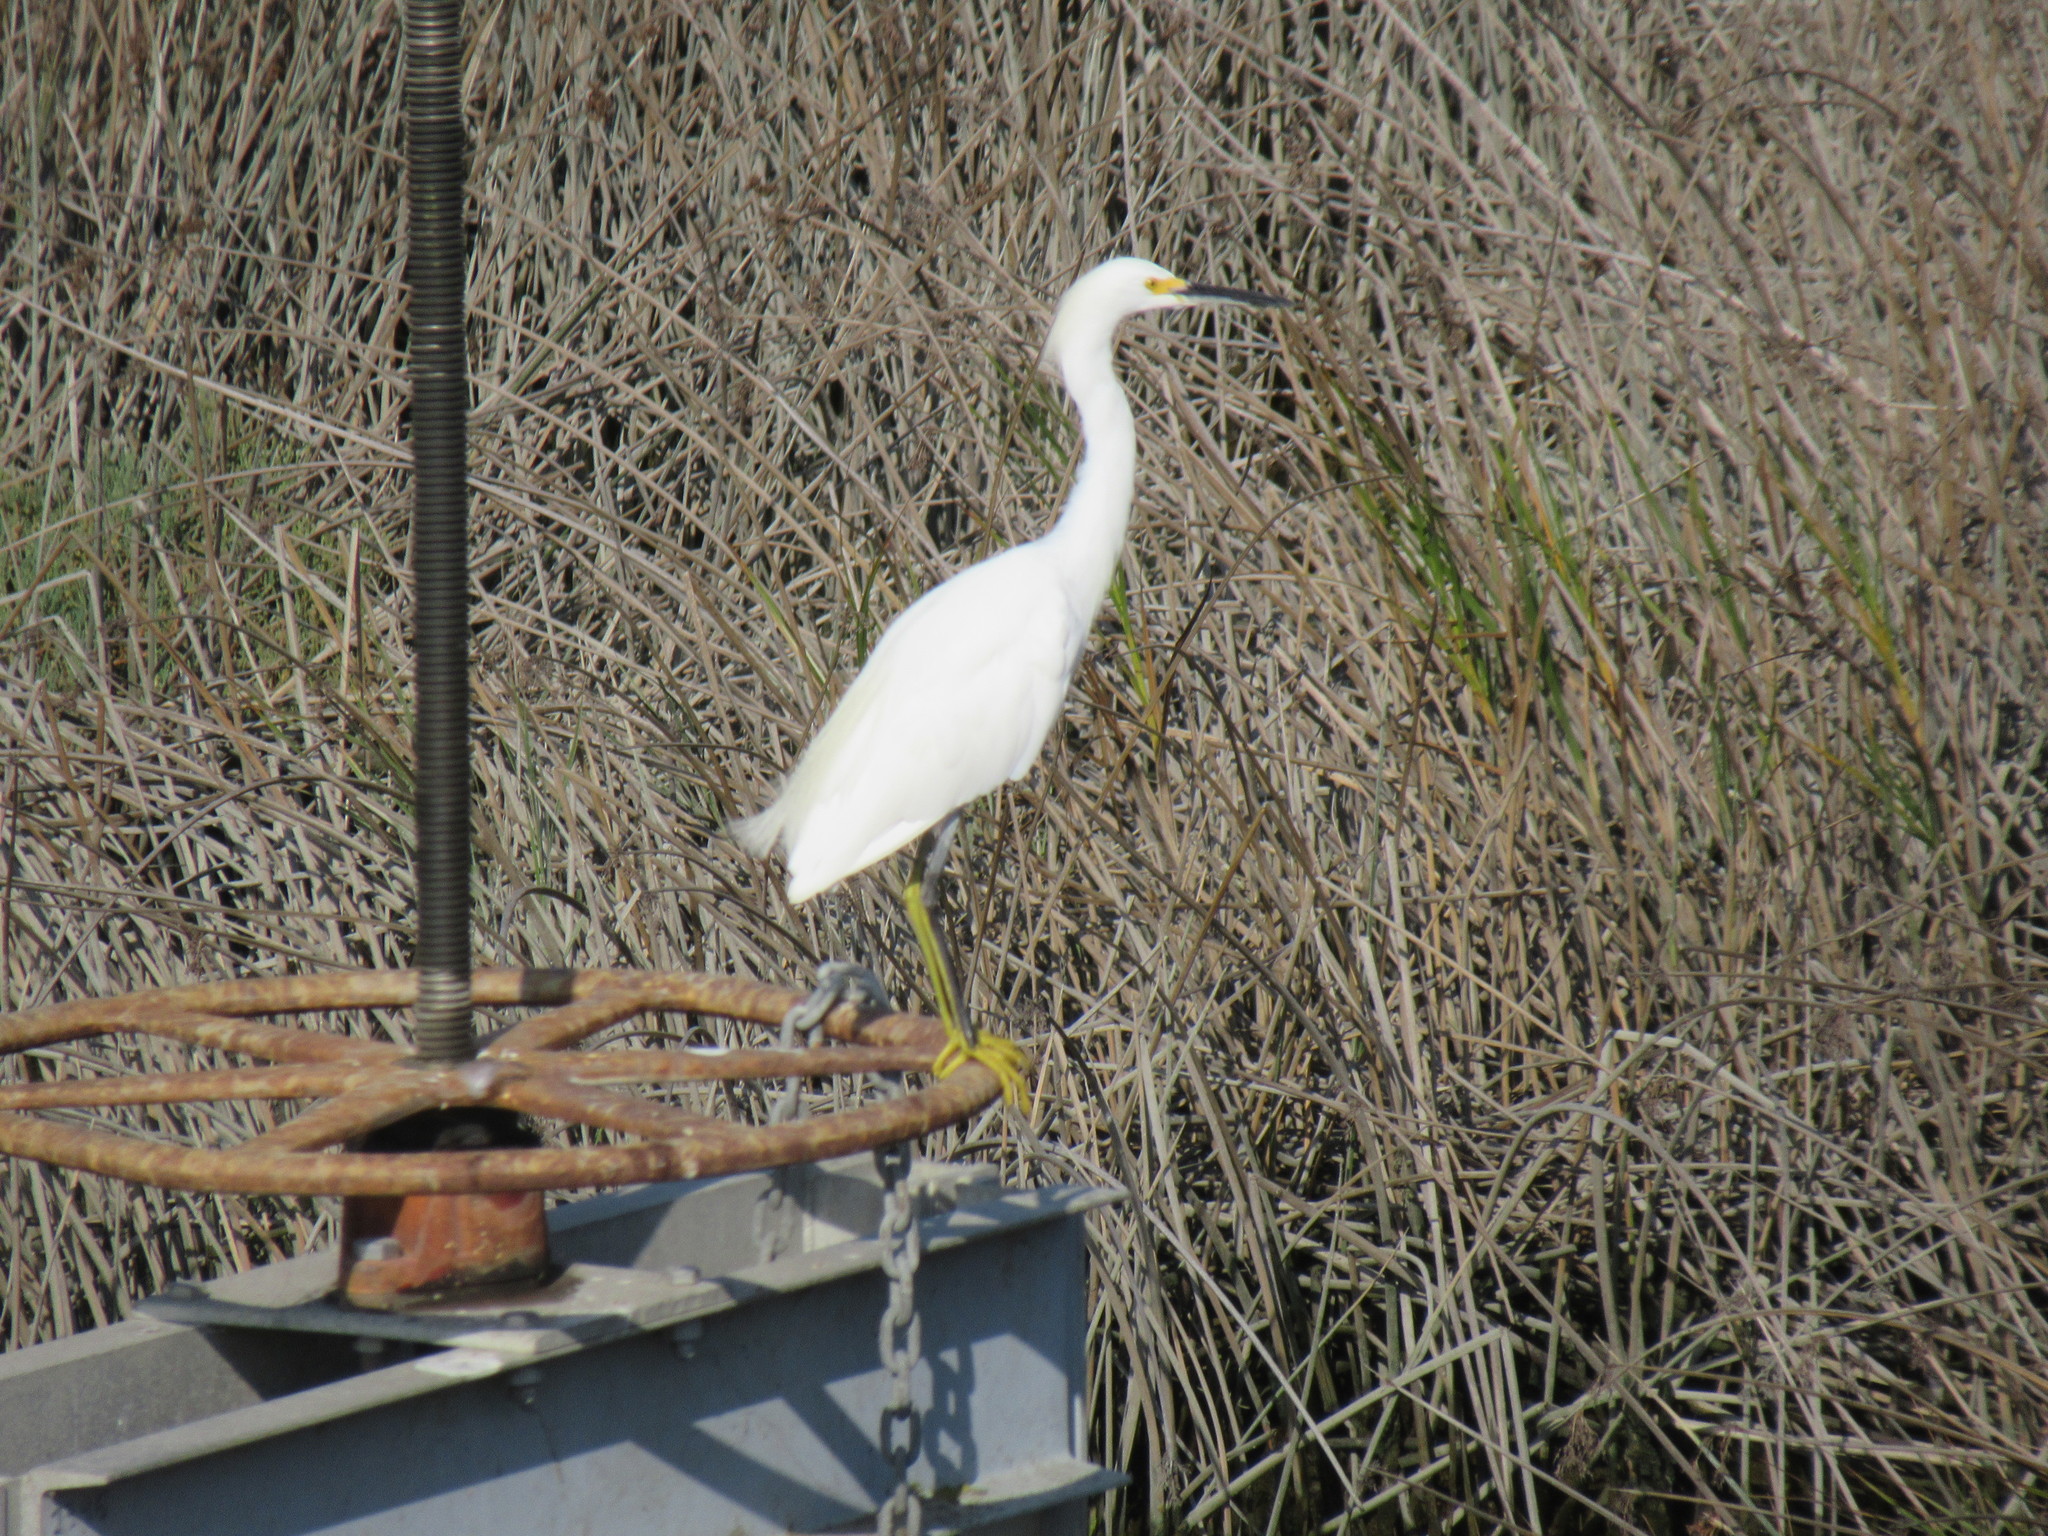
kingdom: Animalia
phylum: Chordata
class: Aves
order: Pelecaniformes
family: Ardeidae
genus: Egretta
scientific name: Egretta thula
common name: Snowy egret
